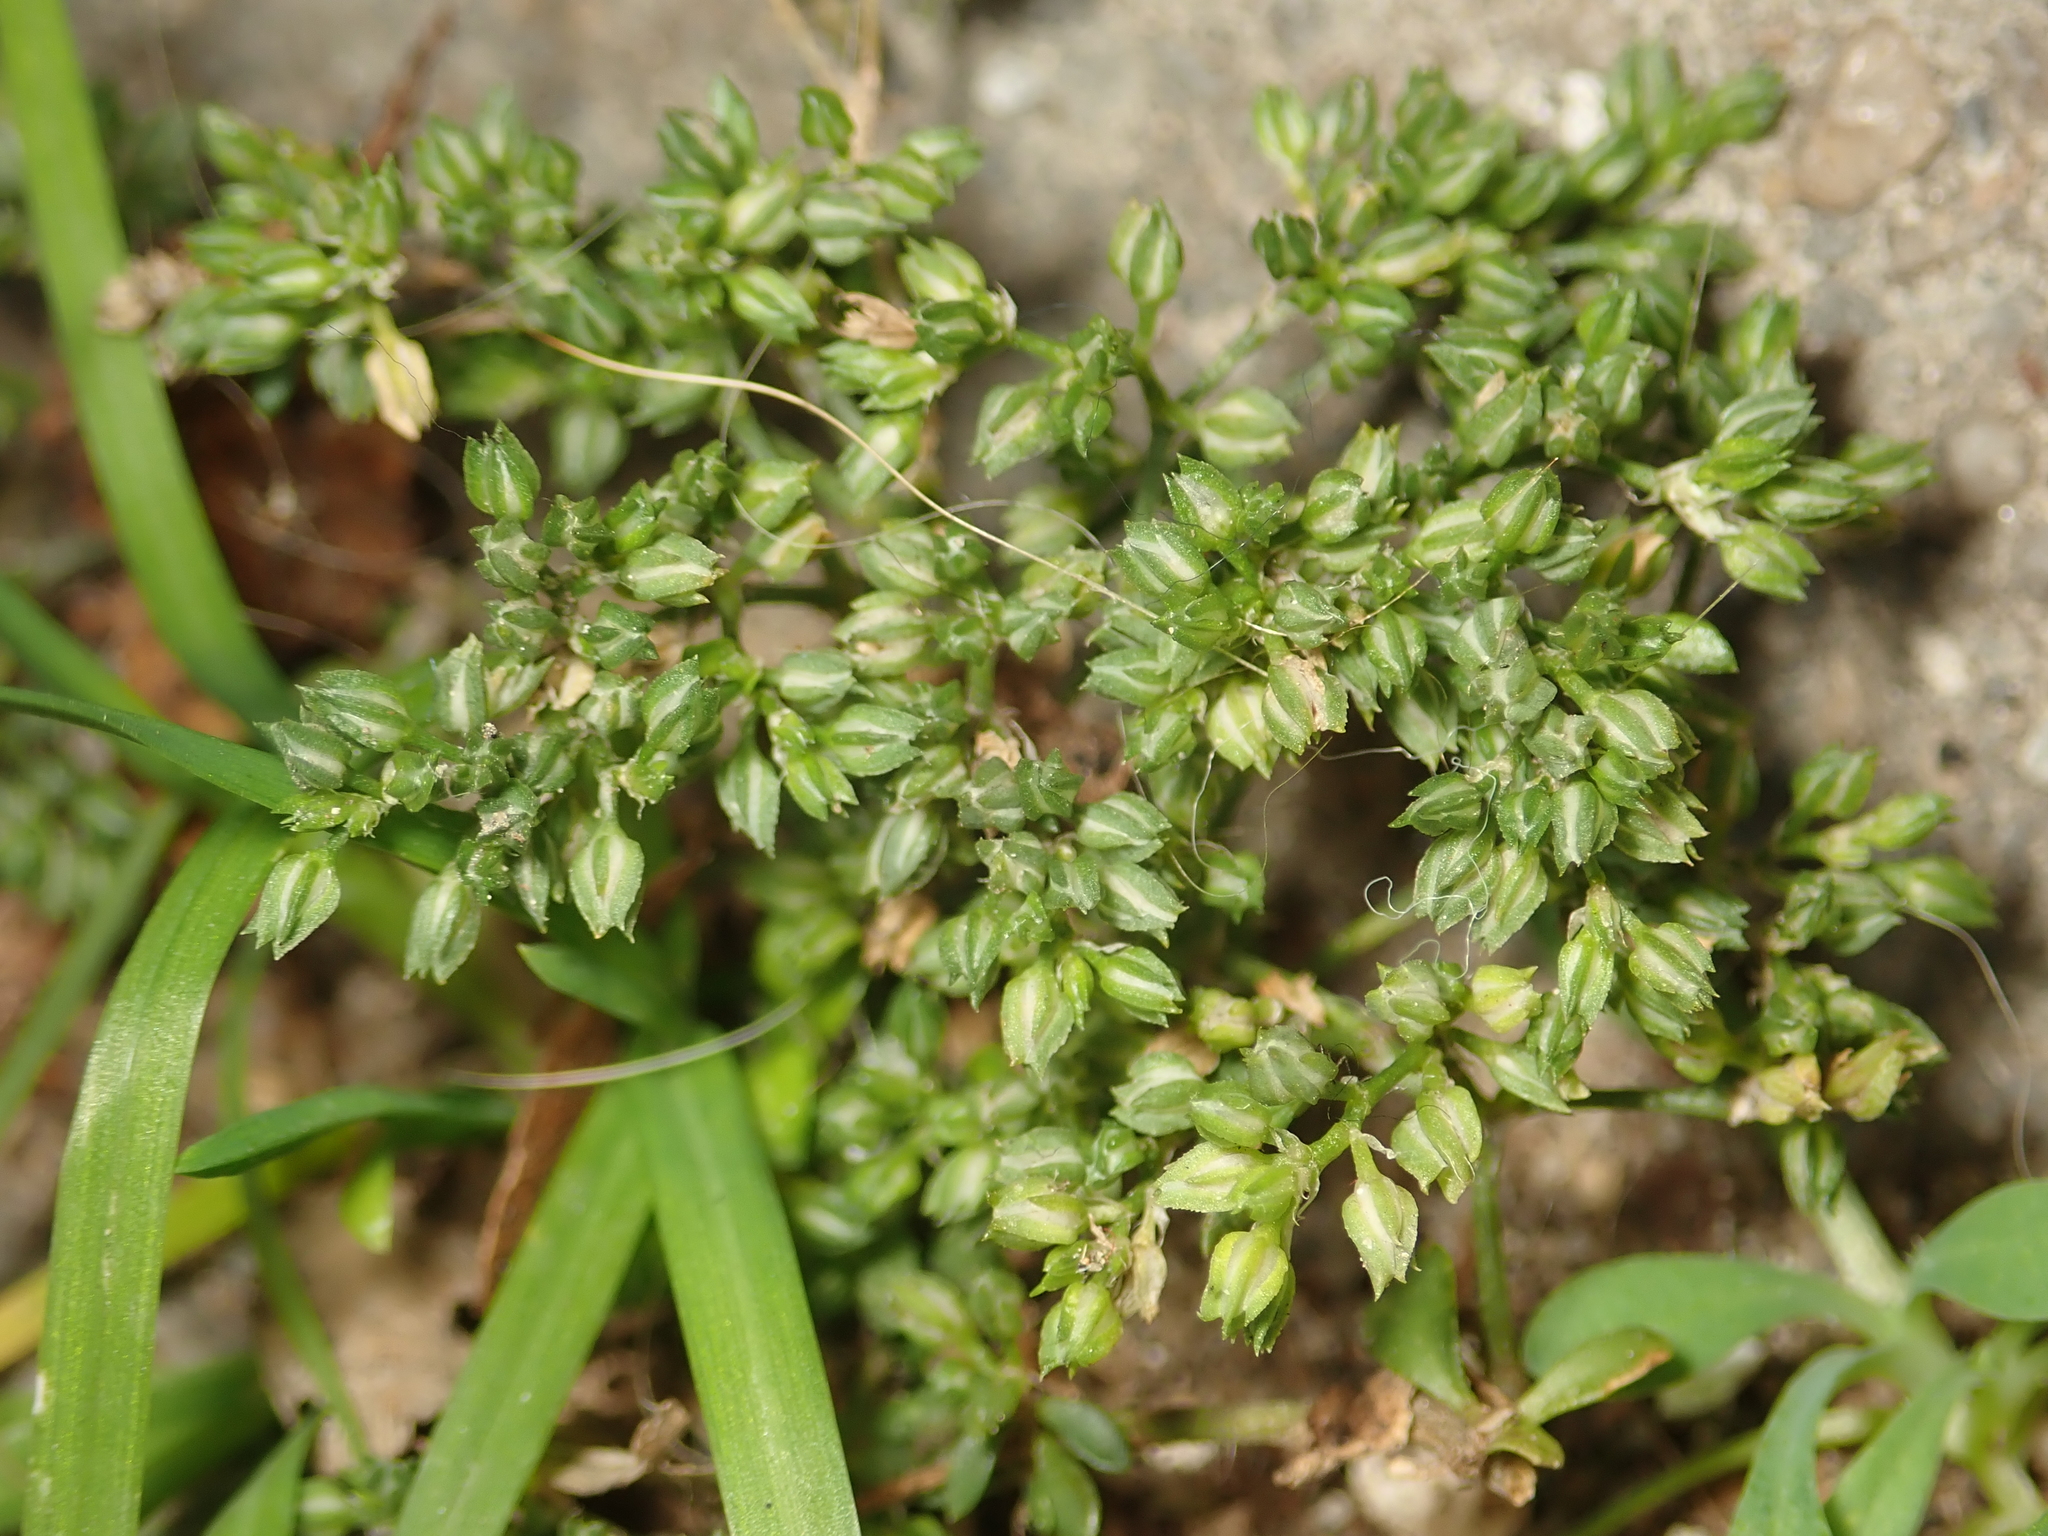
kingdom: Plantae
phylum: Tracheophyta
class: Magnoliopsida
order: Caryophyllales
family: Caryophyllaceae
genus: Polycarpon
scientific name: Polycarpon tetraphyllum
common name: Four-leaved all-seed
